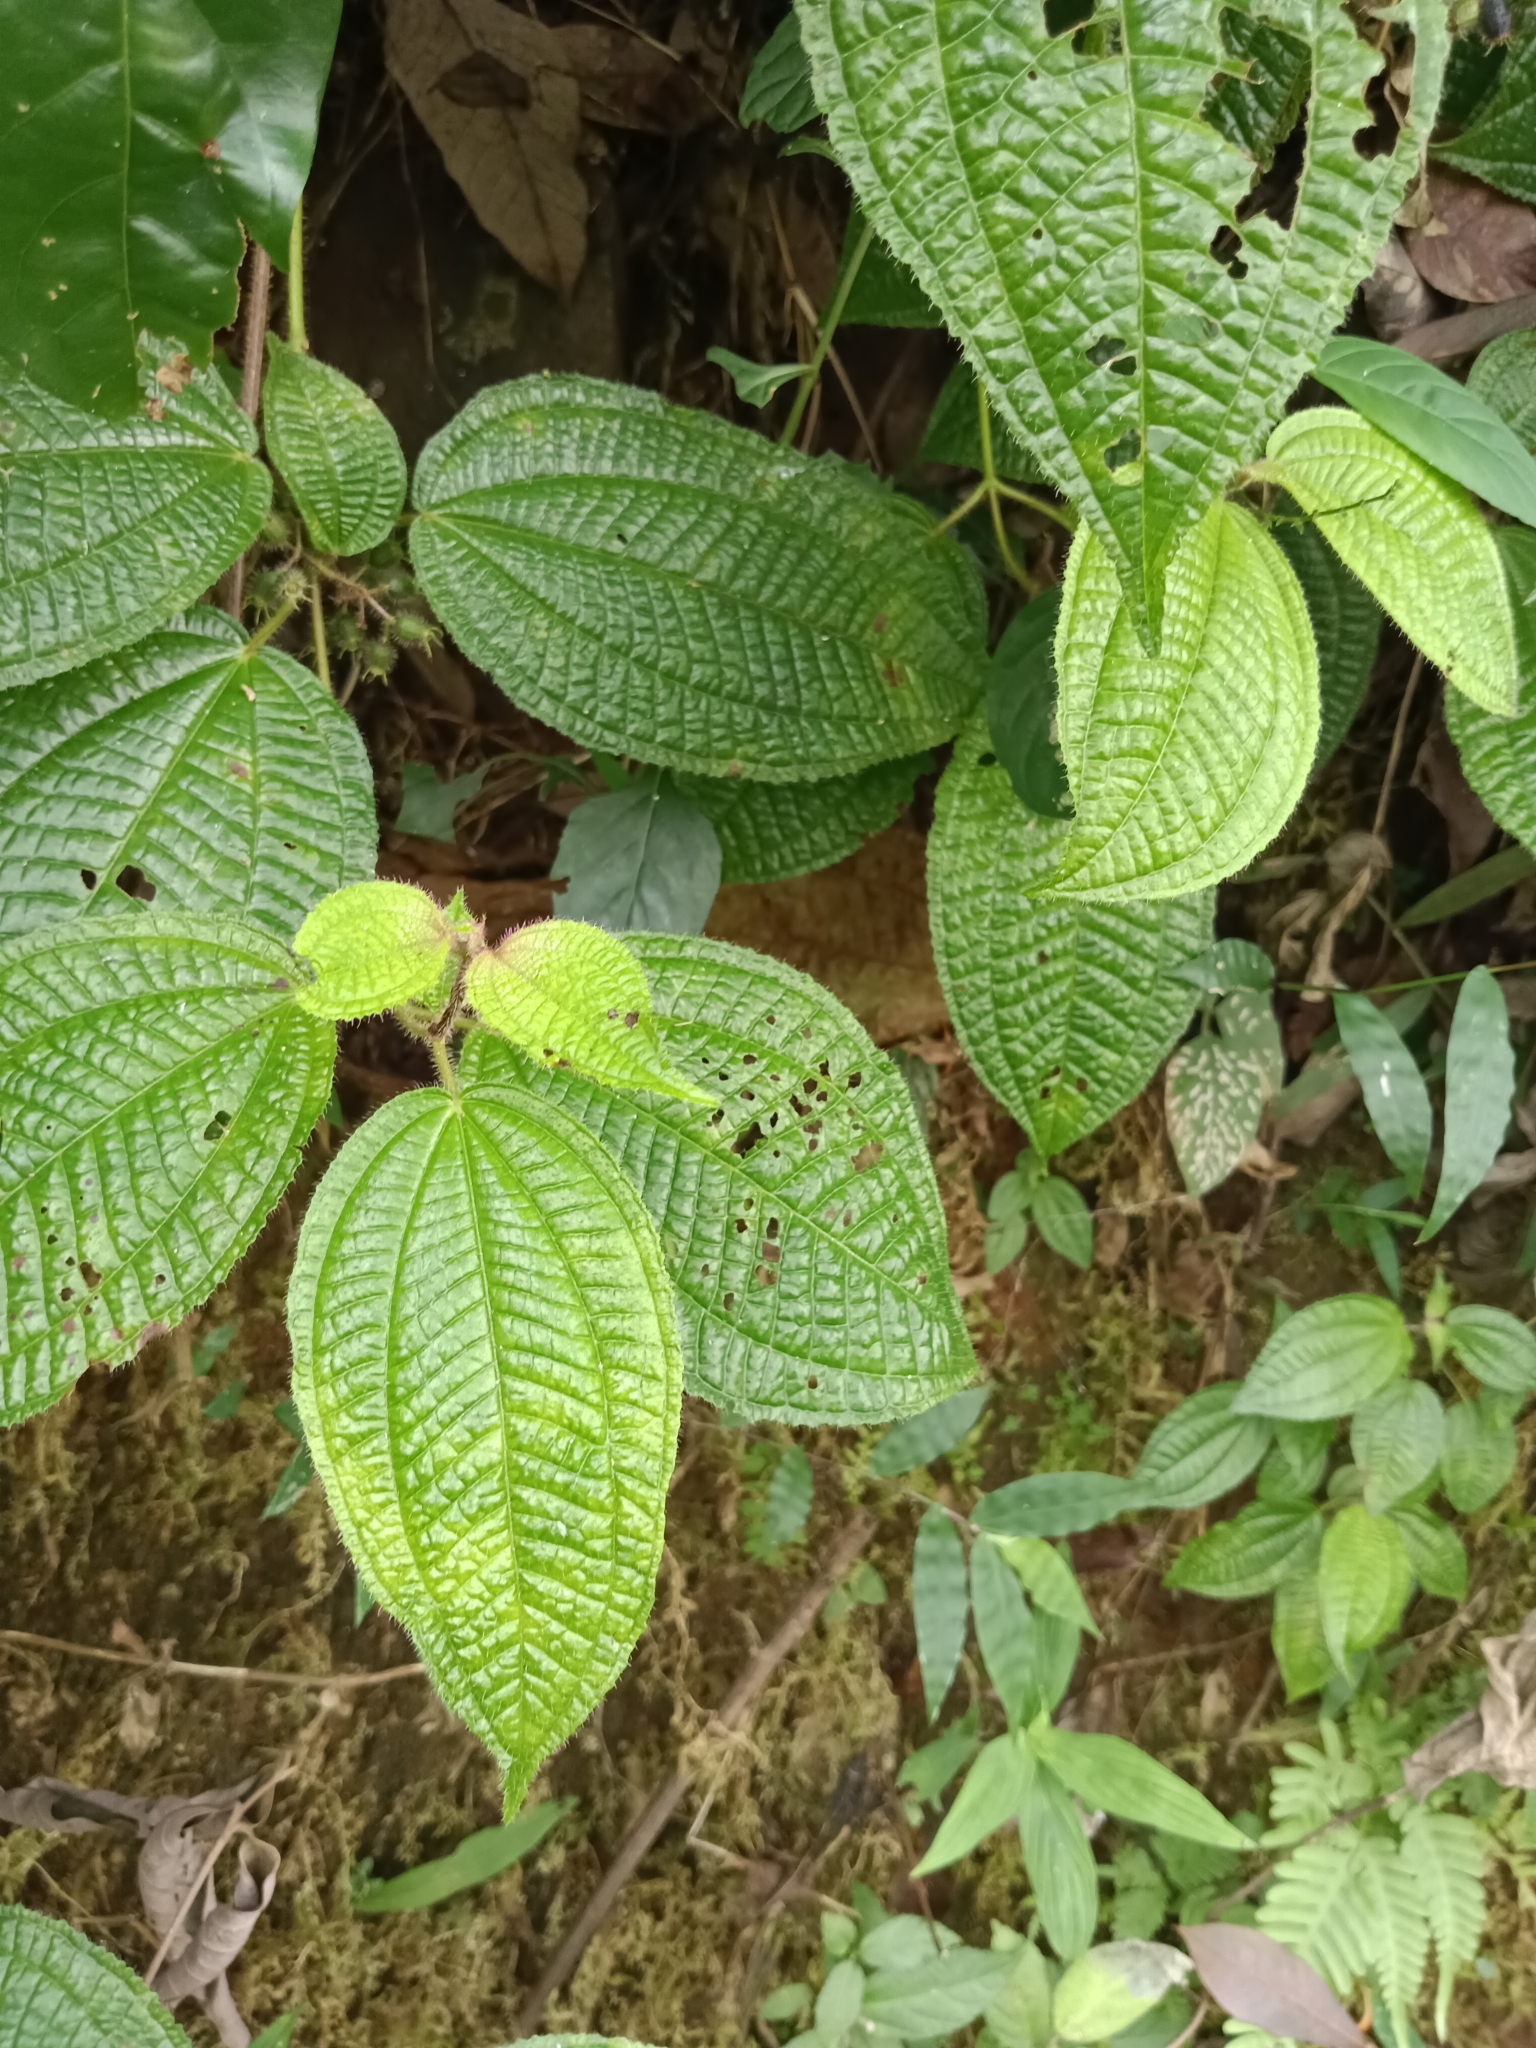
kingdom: Plantae
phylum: Tracheophyta
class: Magnoliopsida
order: Myrtales
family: Melastomataceae
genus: Miconia
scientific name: Miconia crenata
